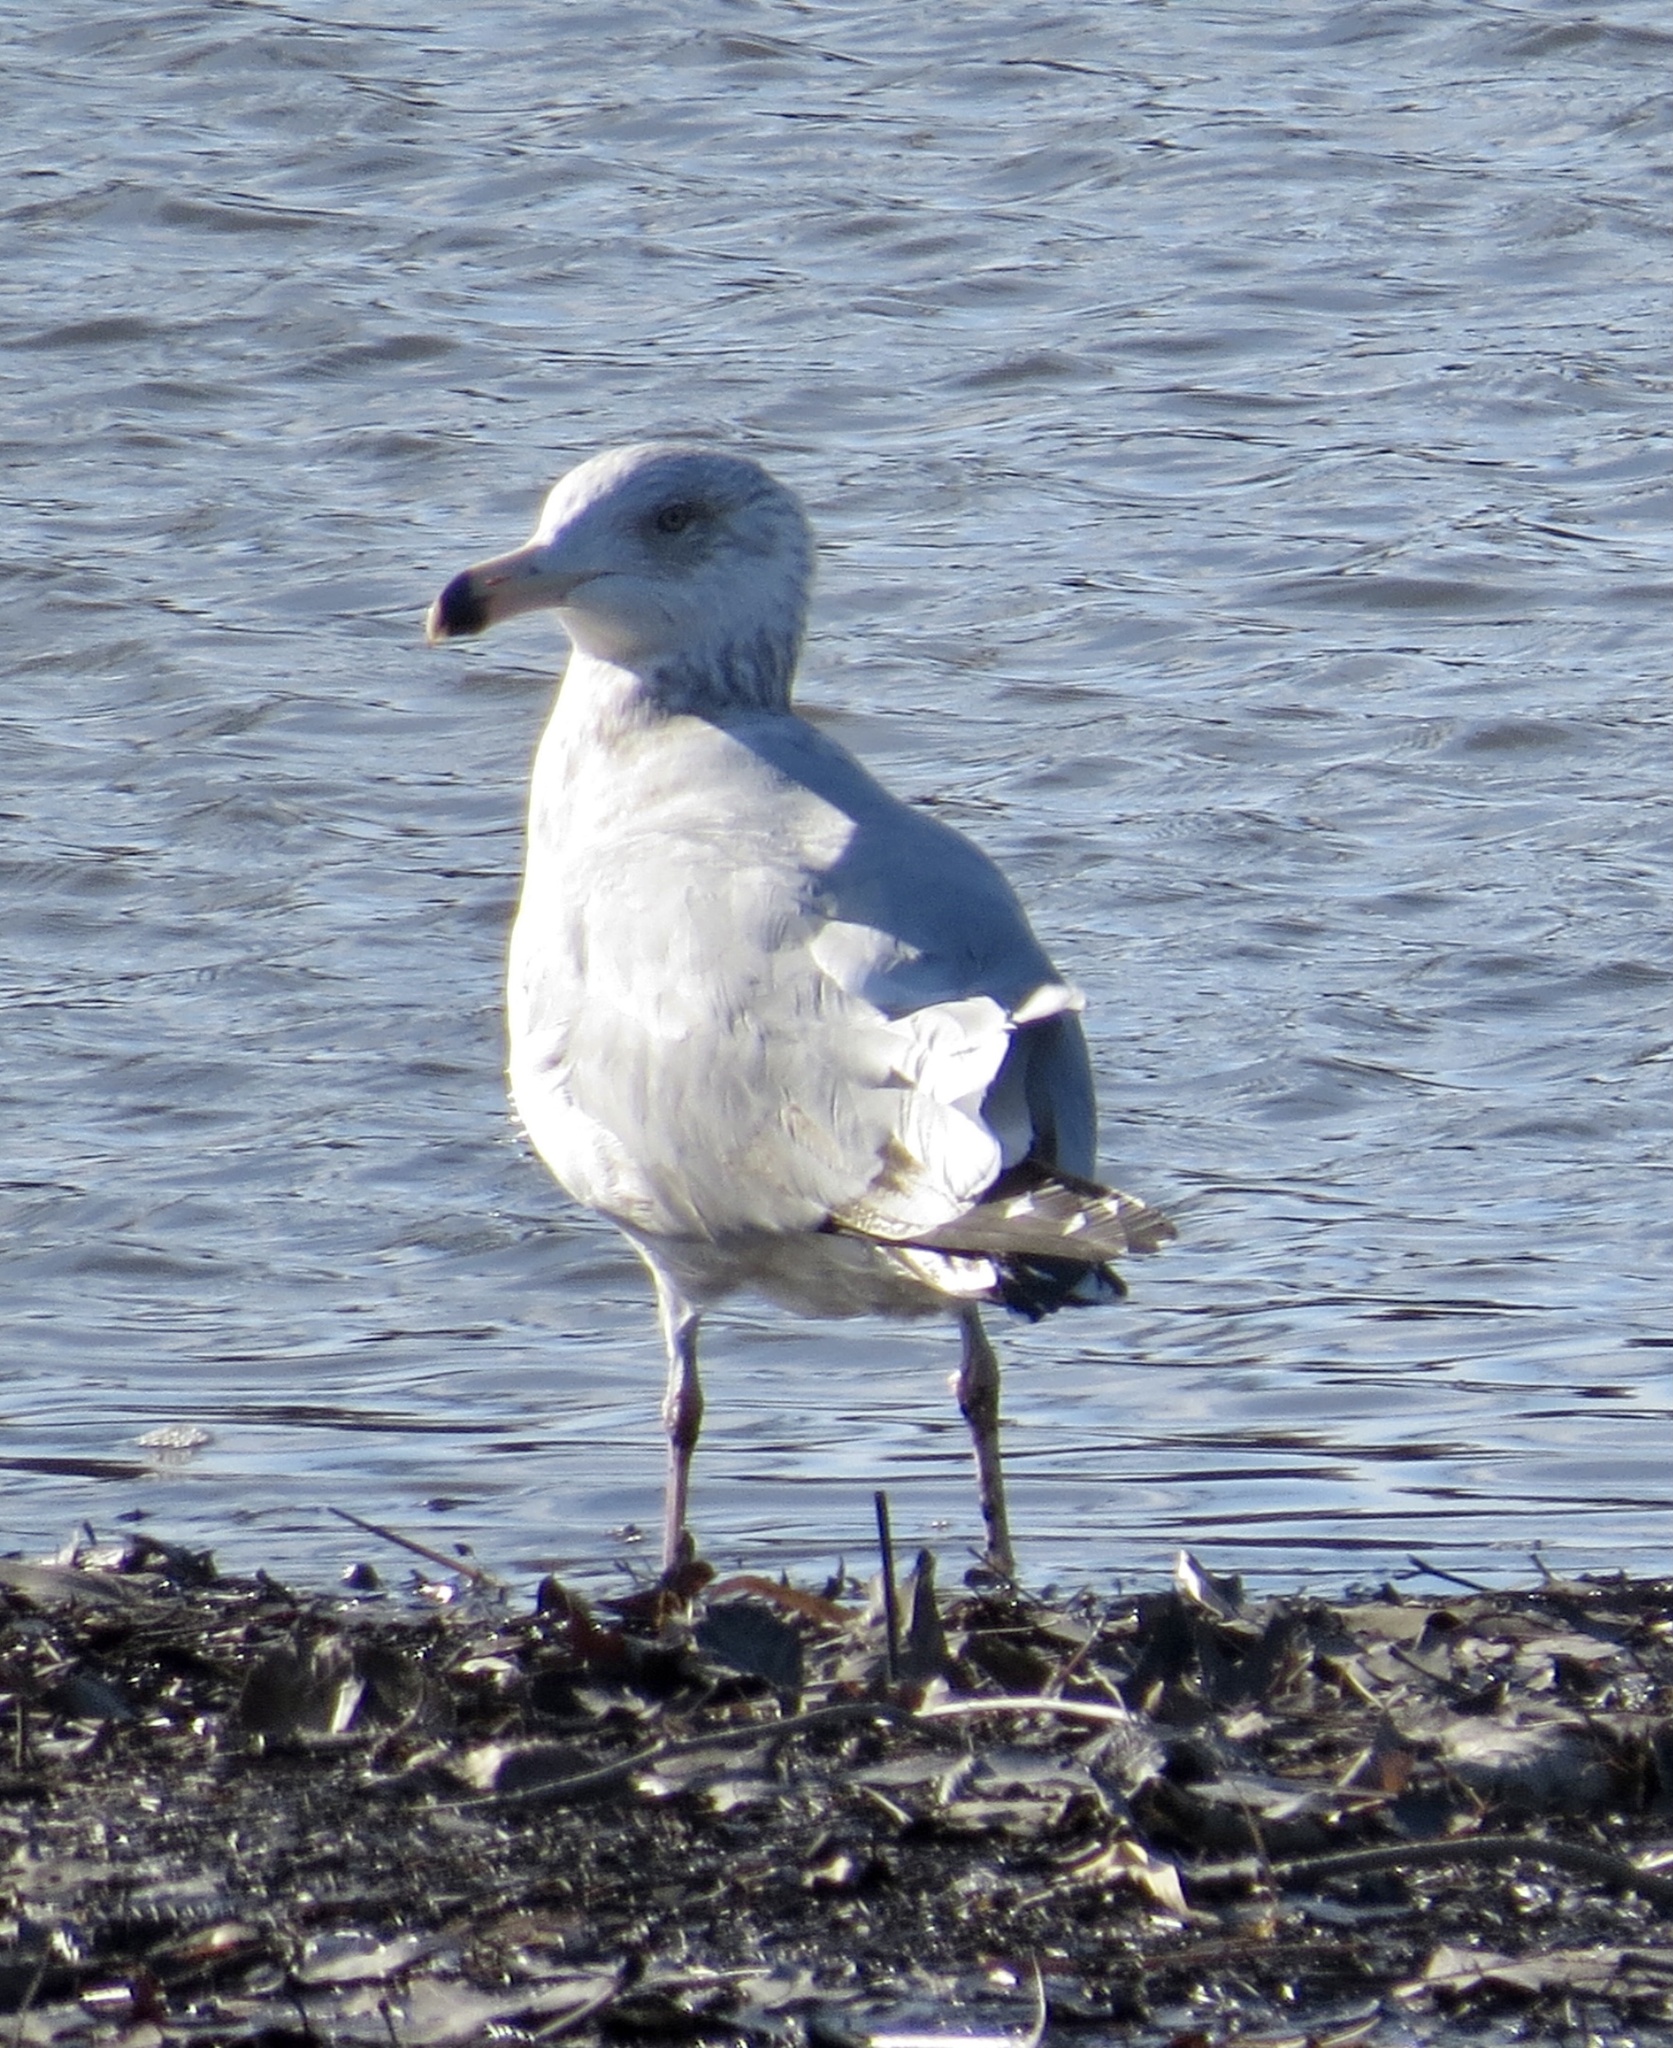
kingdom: Animalia
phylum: Chordata
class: Aves
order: Charadriiformes
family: Laridae
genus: Larus
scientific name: Larus argentatus
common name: Herring gull
